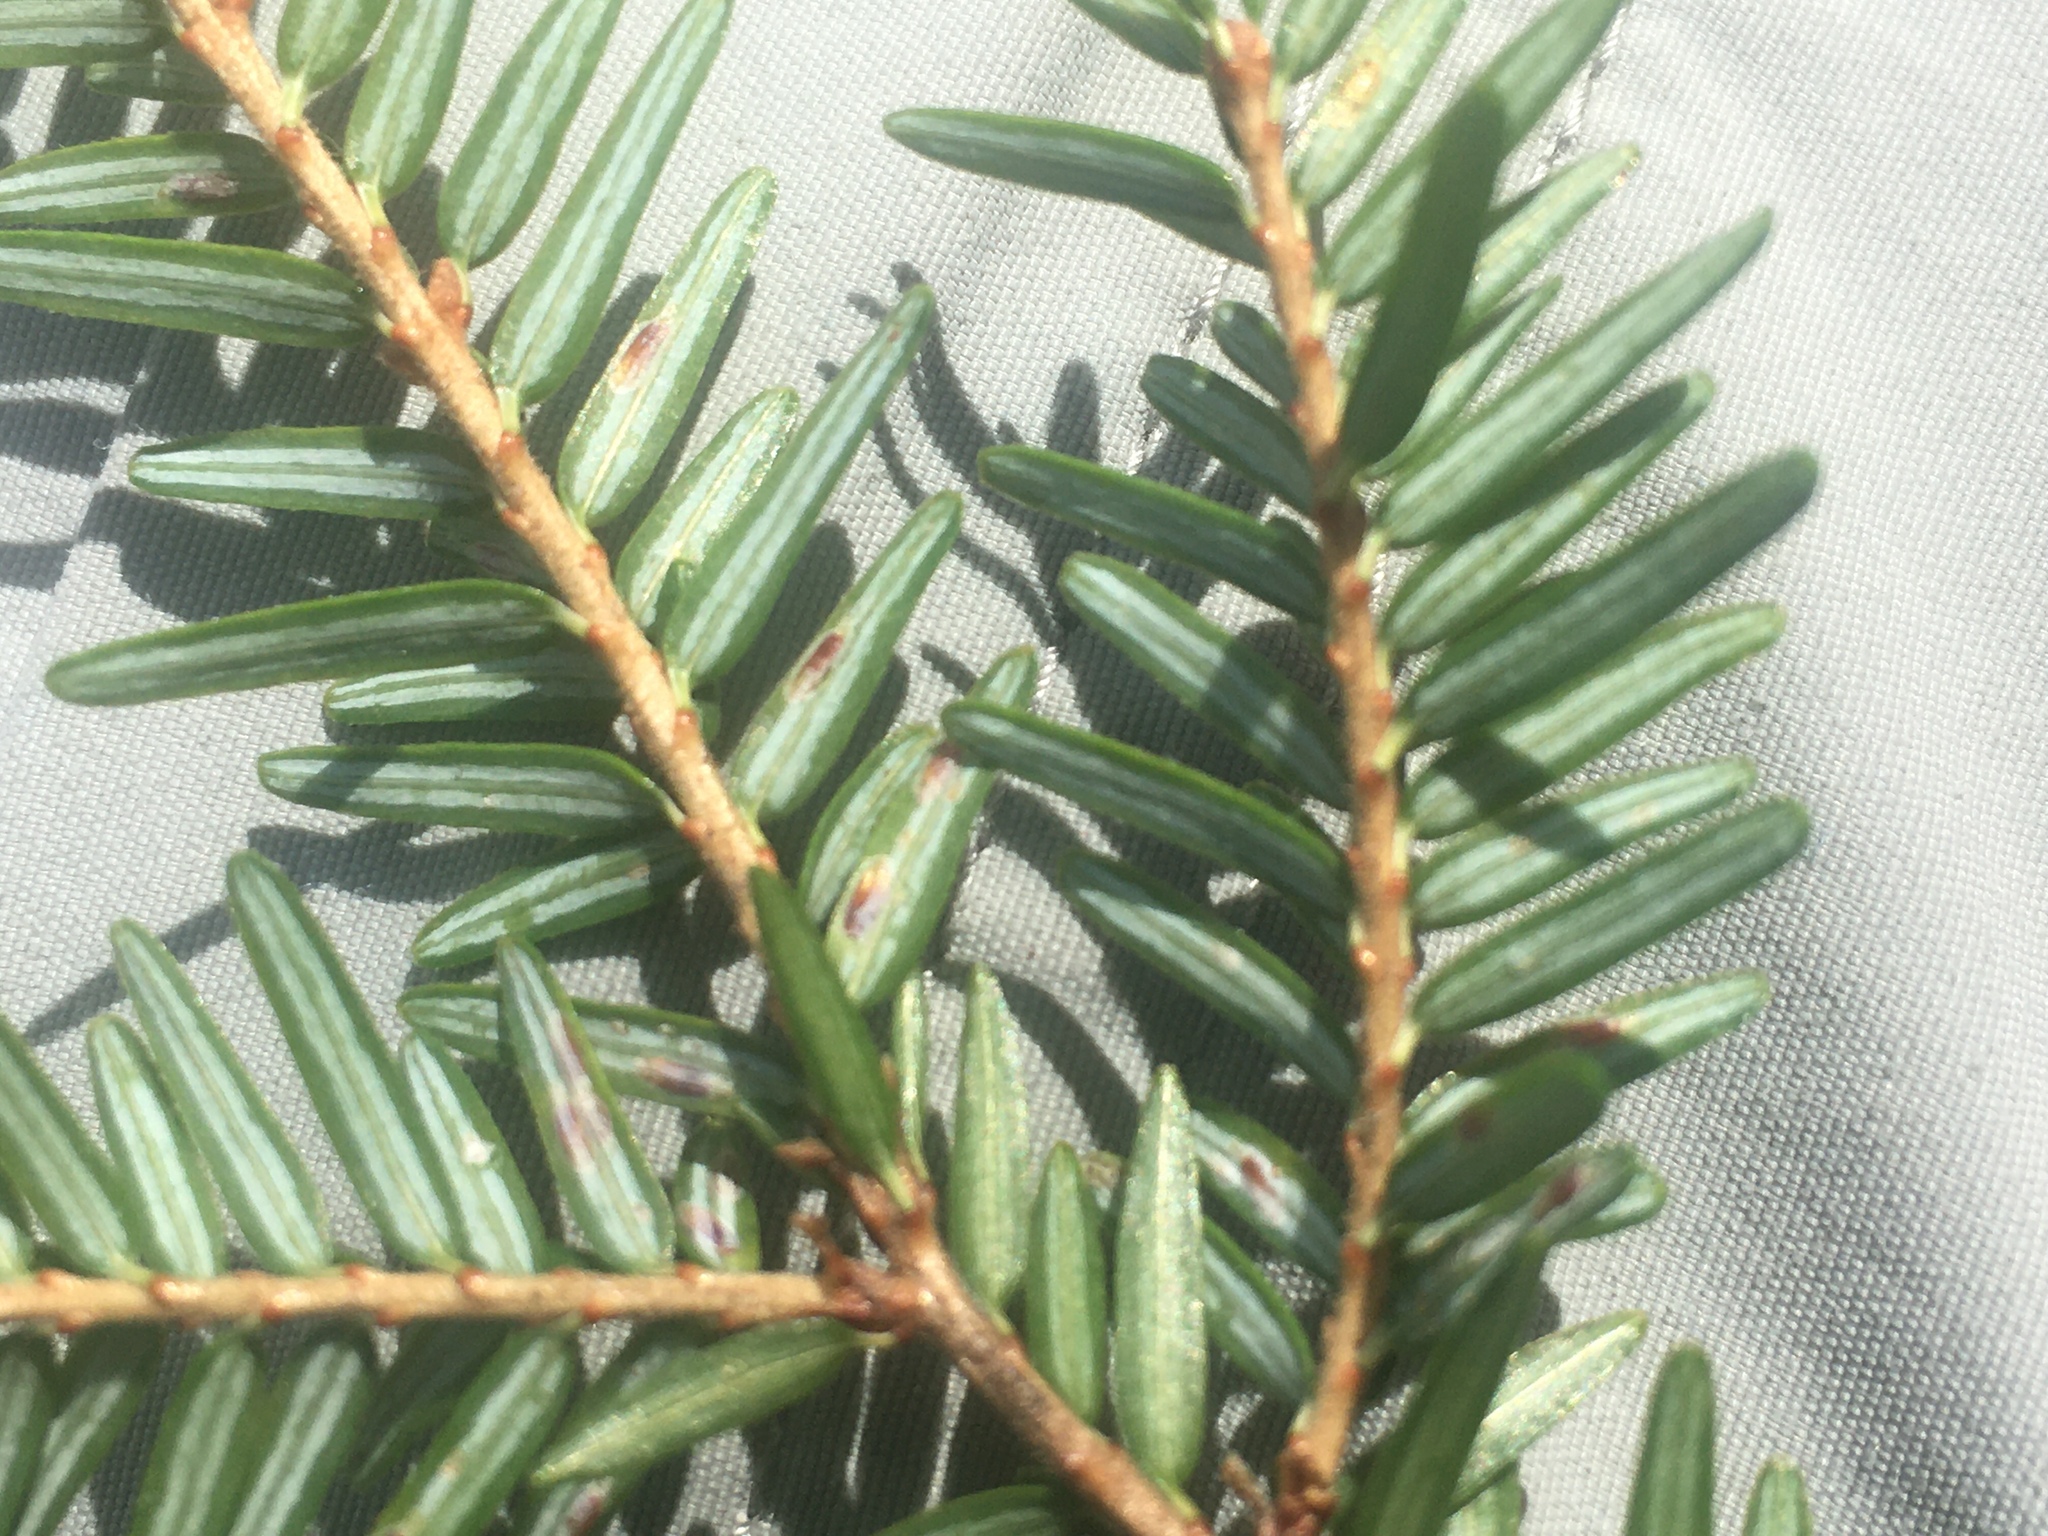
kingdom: Animalia
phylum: Arthropoda
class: Insecta
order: Hemiptera
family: Diaspididae
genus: Fiorinia
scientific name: Fiorinia externa
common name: Elongate hemlock scale
